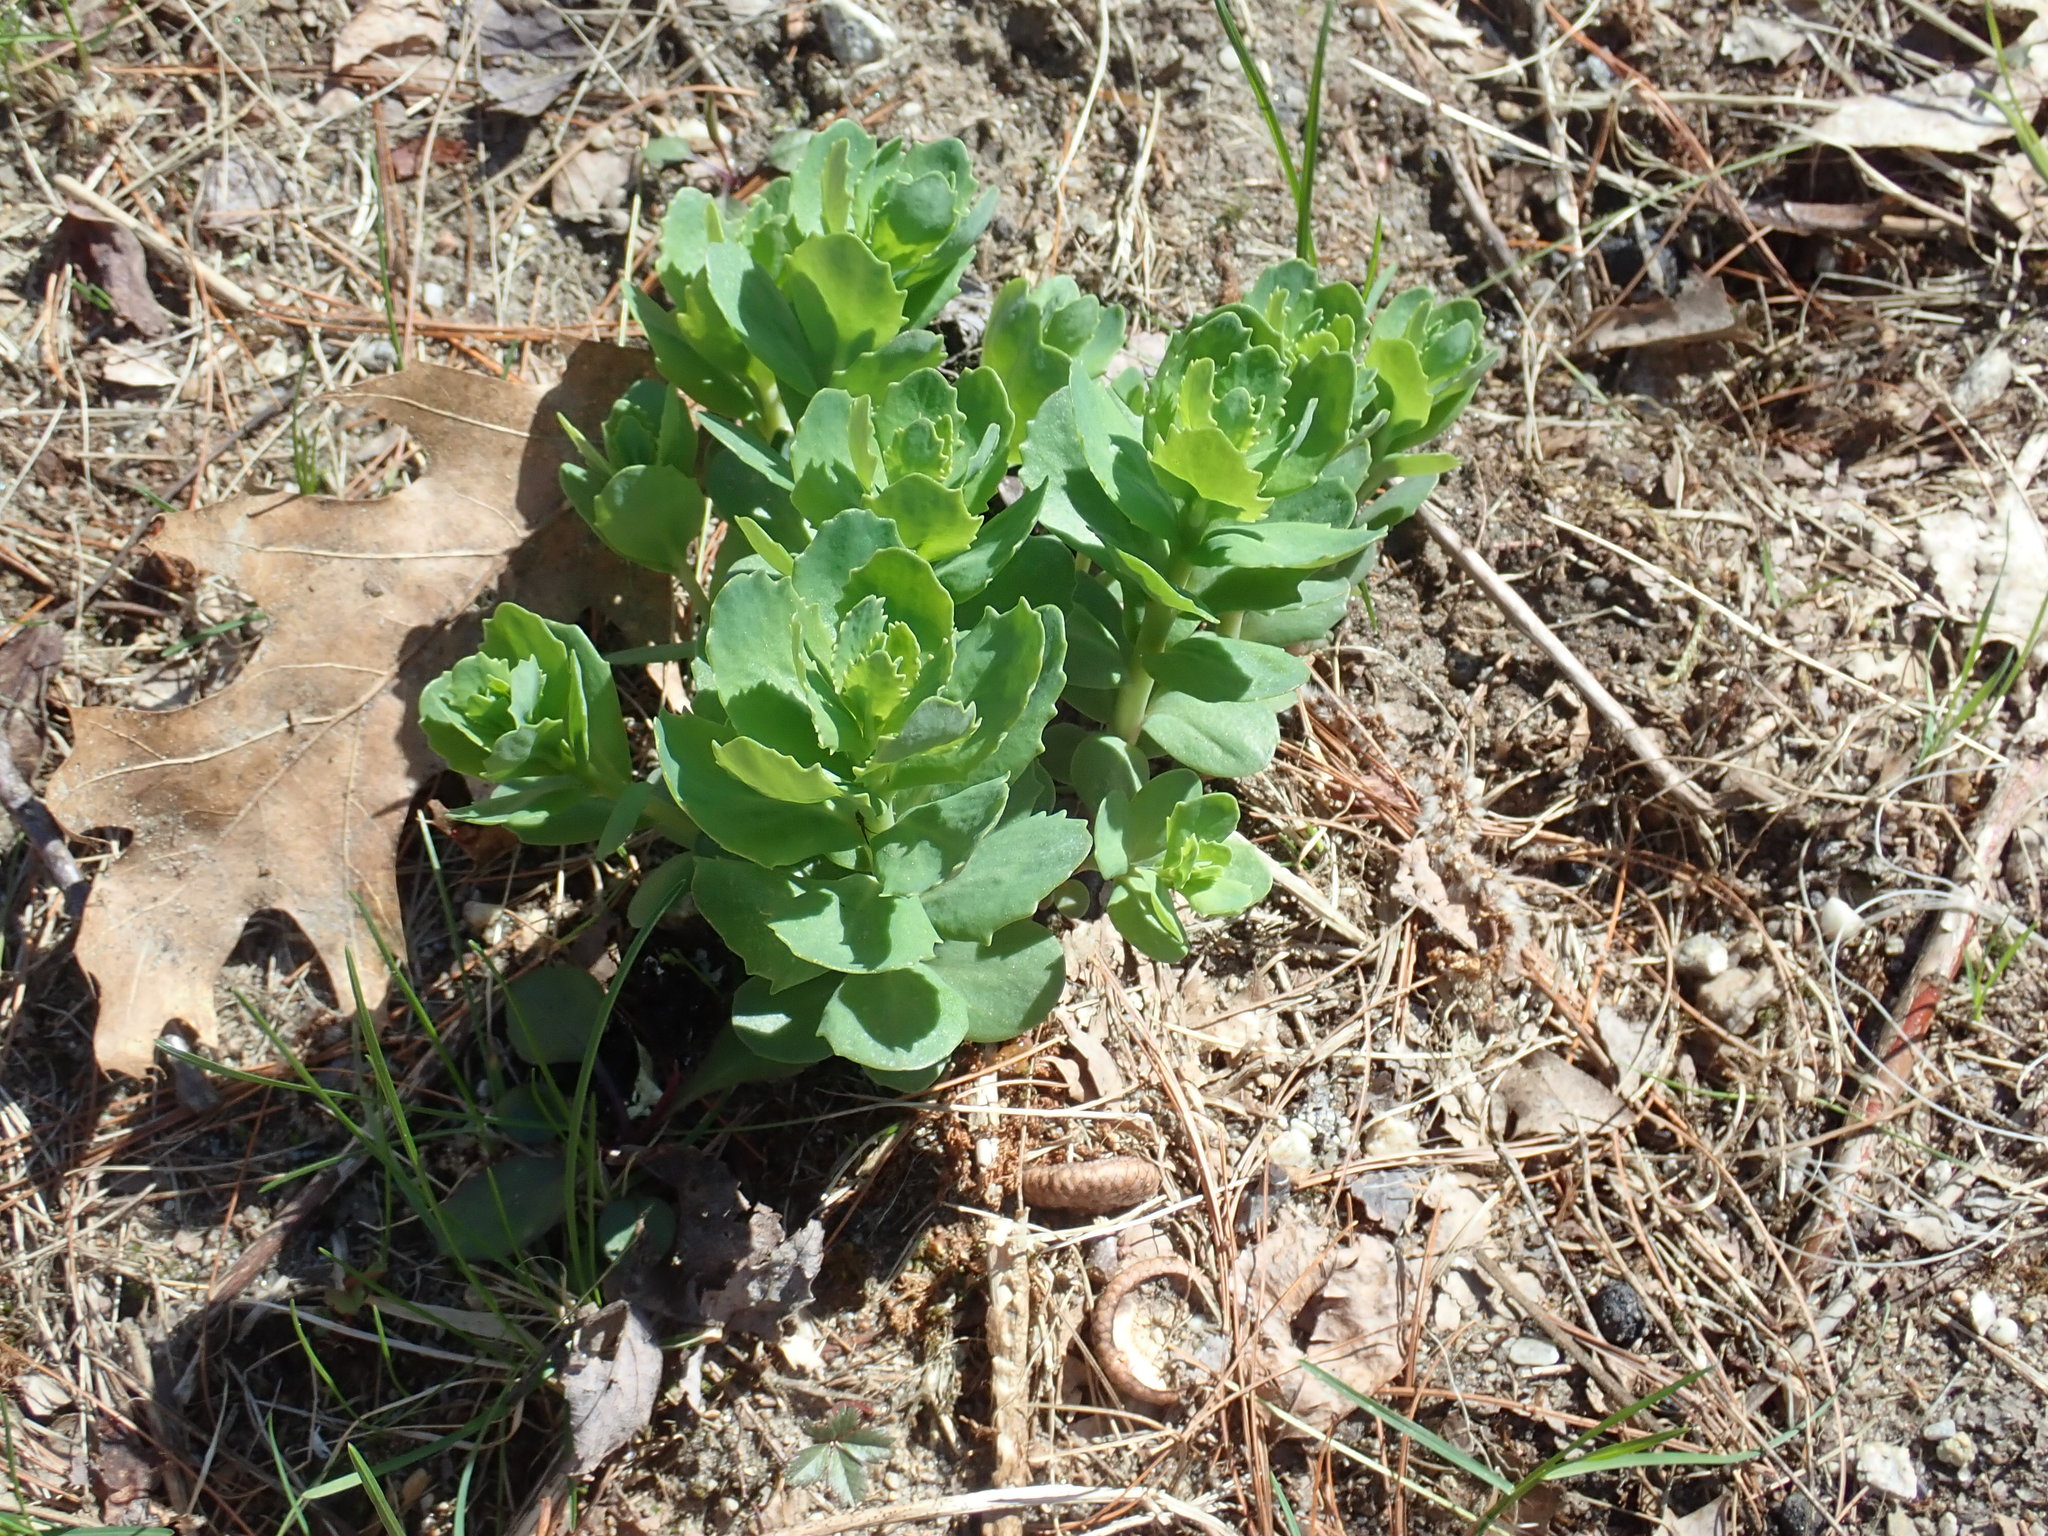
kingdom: Plantae
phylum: Tracheophyta
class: Magnoliopsida
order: Saxifragales
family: Crassulaceae
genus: Hylotelephium
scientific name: Hylotelephium telephium
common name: Live-forever
